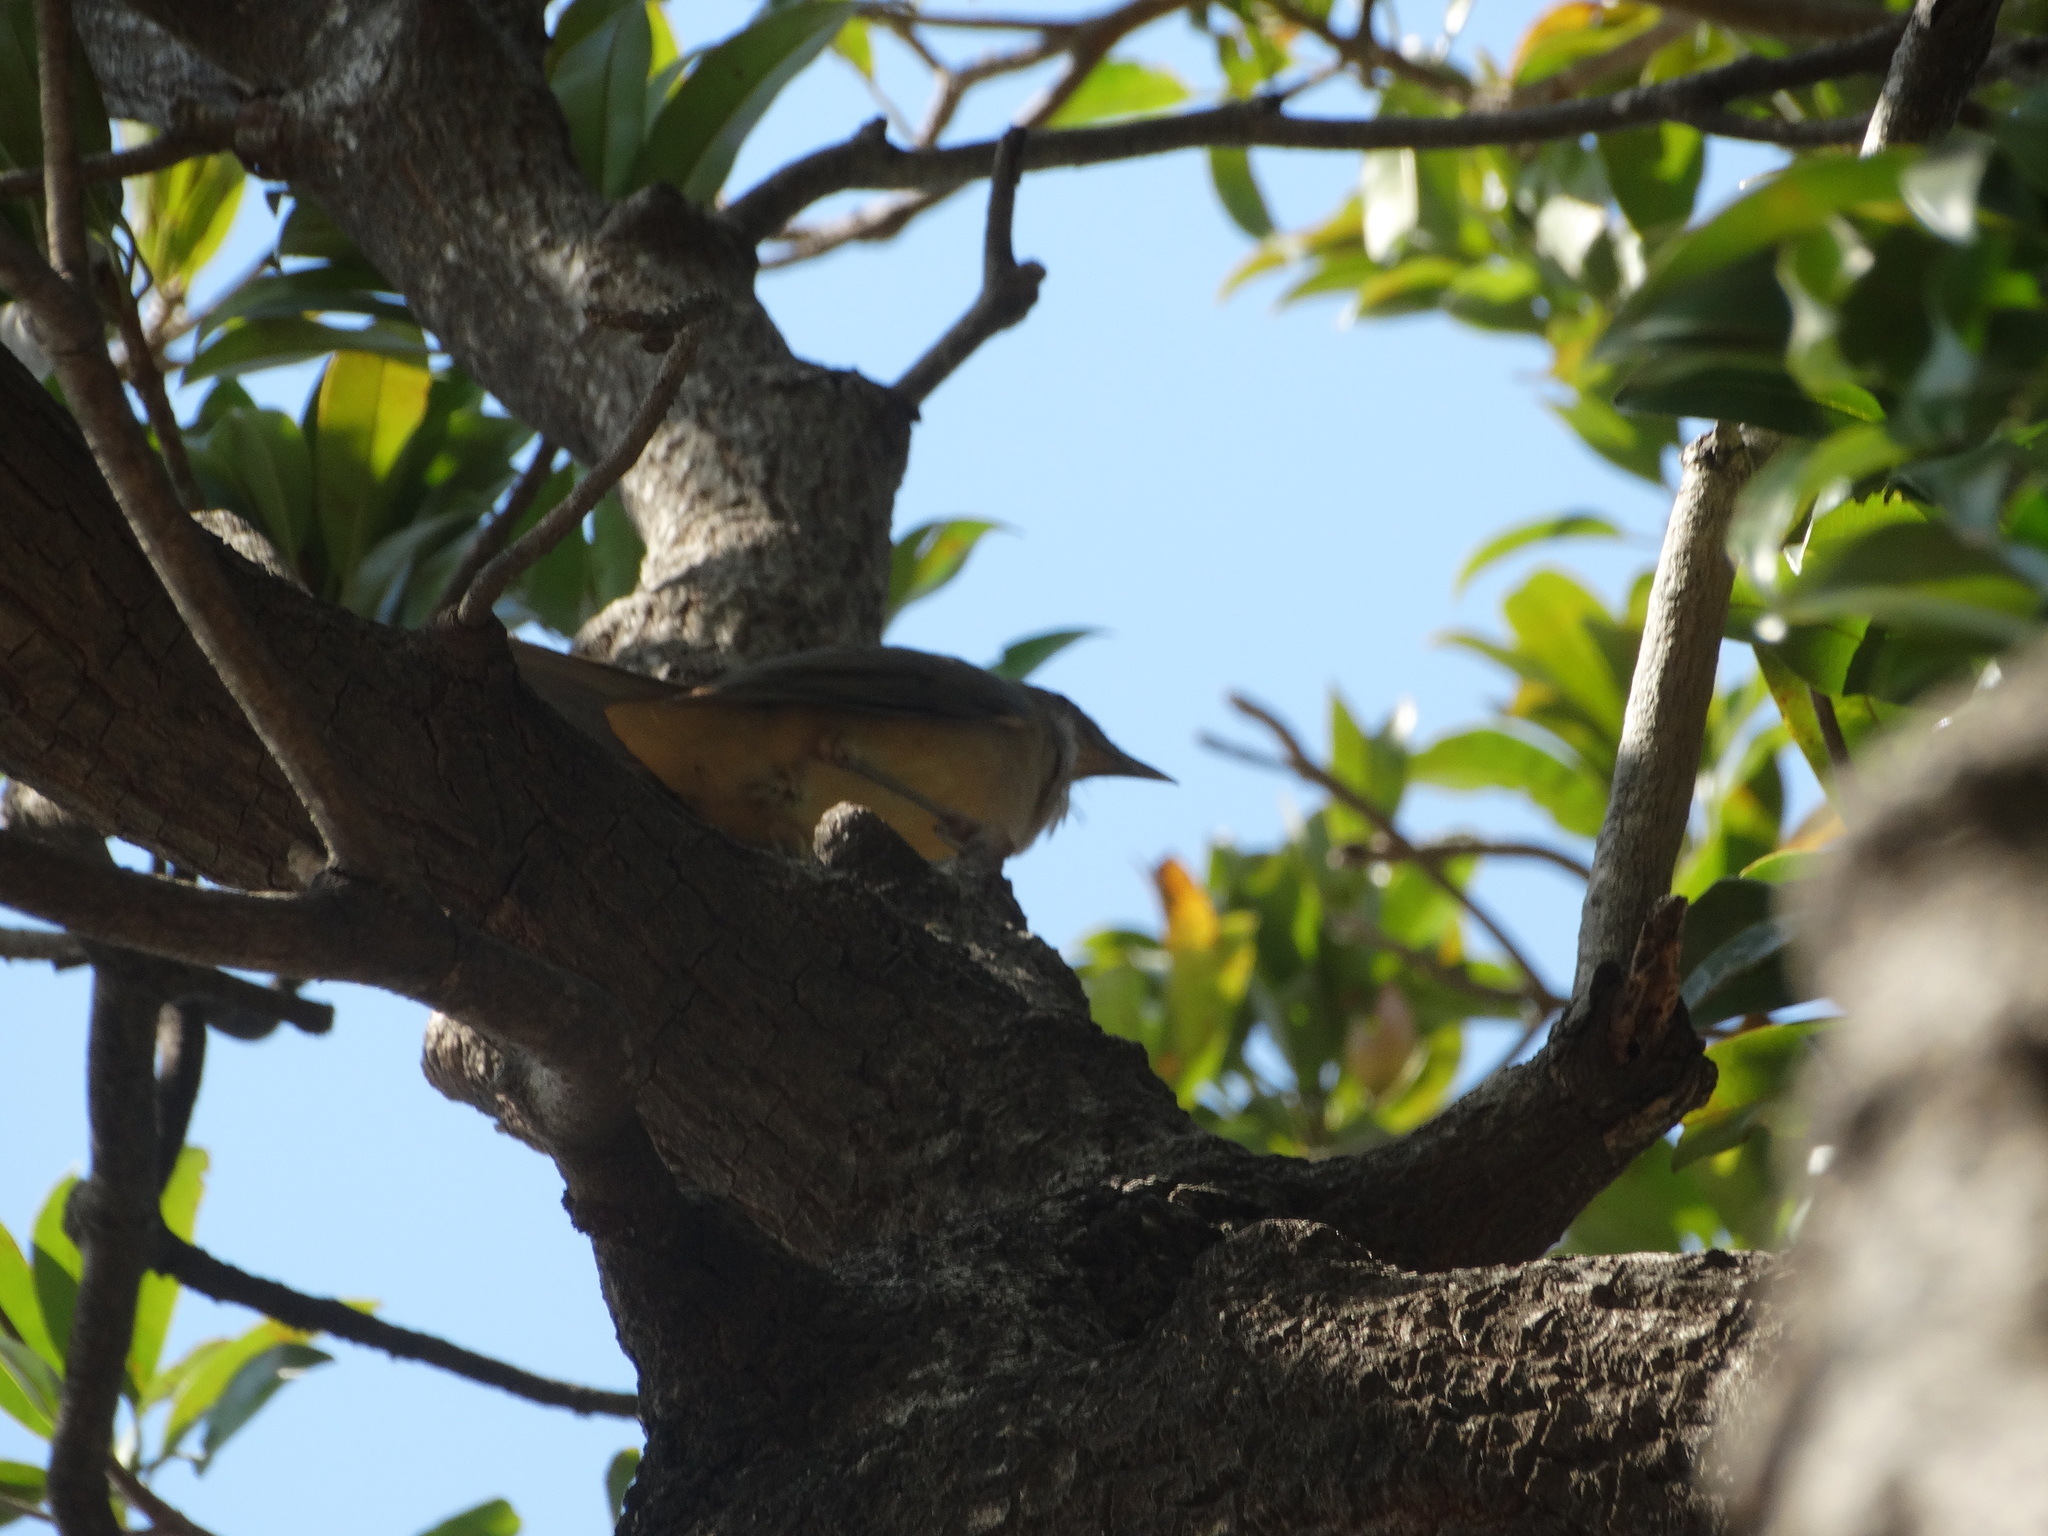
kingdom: Animalia
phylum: Chordata
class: Aves
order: Passeriformes
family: Turdidae
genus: Turdus
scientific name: Turdus grayi
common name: Clay-colored thrush
